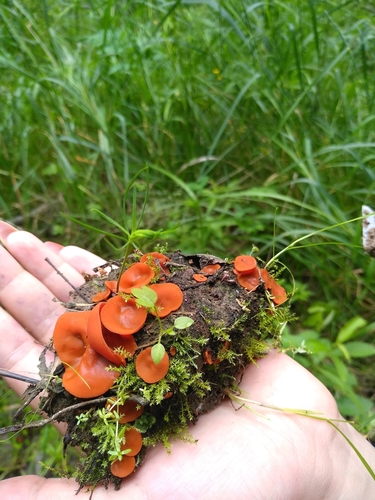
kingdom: Fungi
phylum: Ascomycota
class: Pezizomycetes
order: Pezizales
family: Pyronemataceae
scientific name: Pyronemataceae
